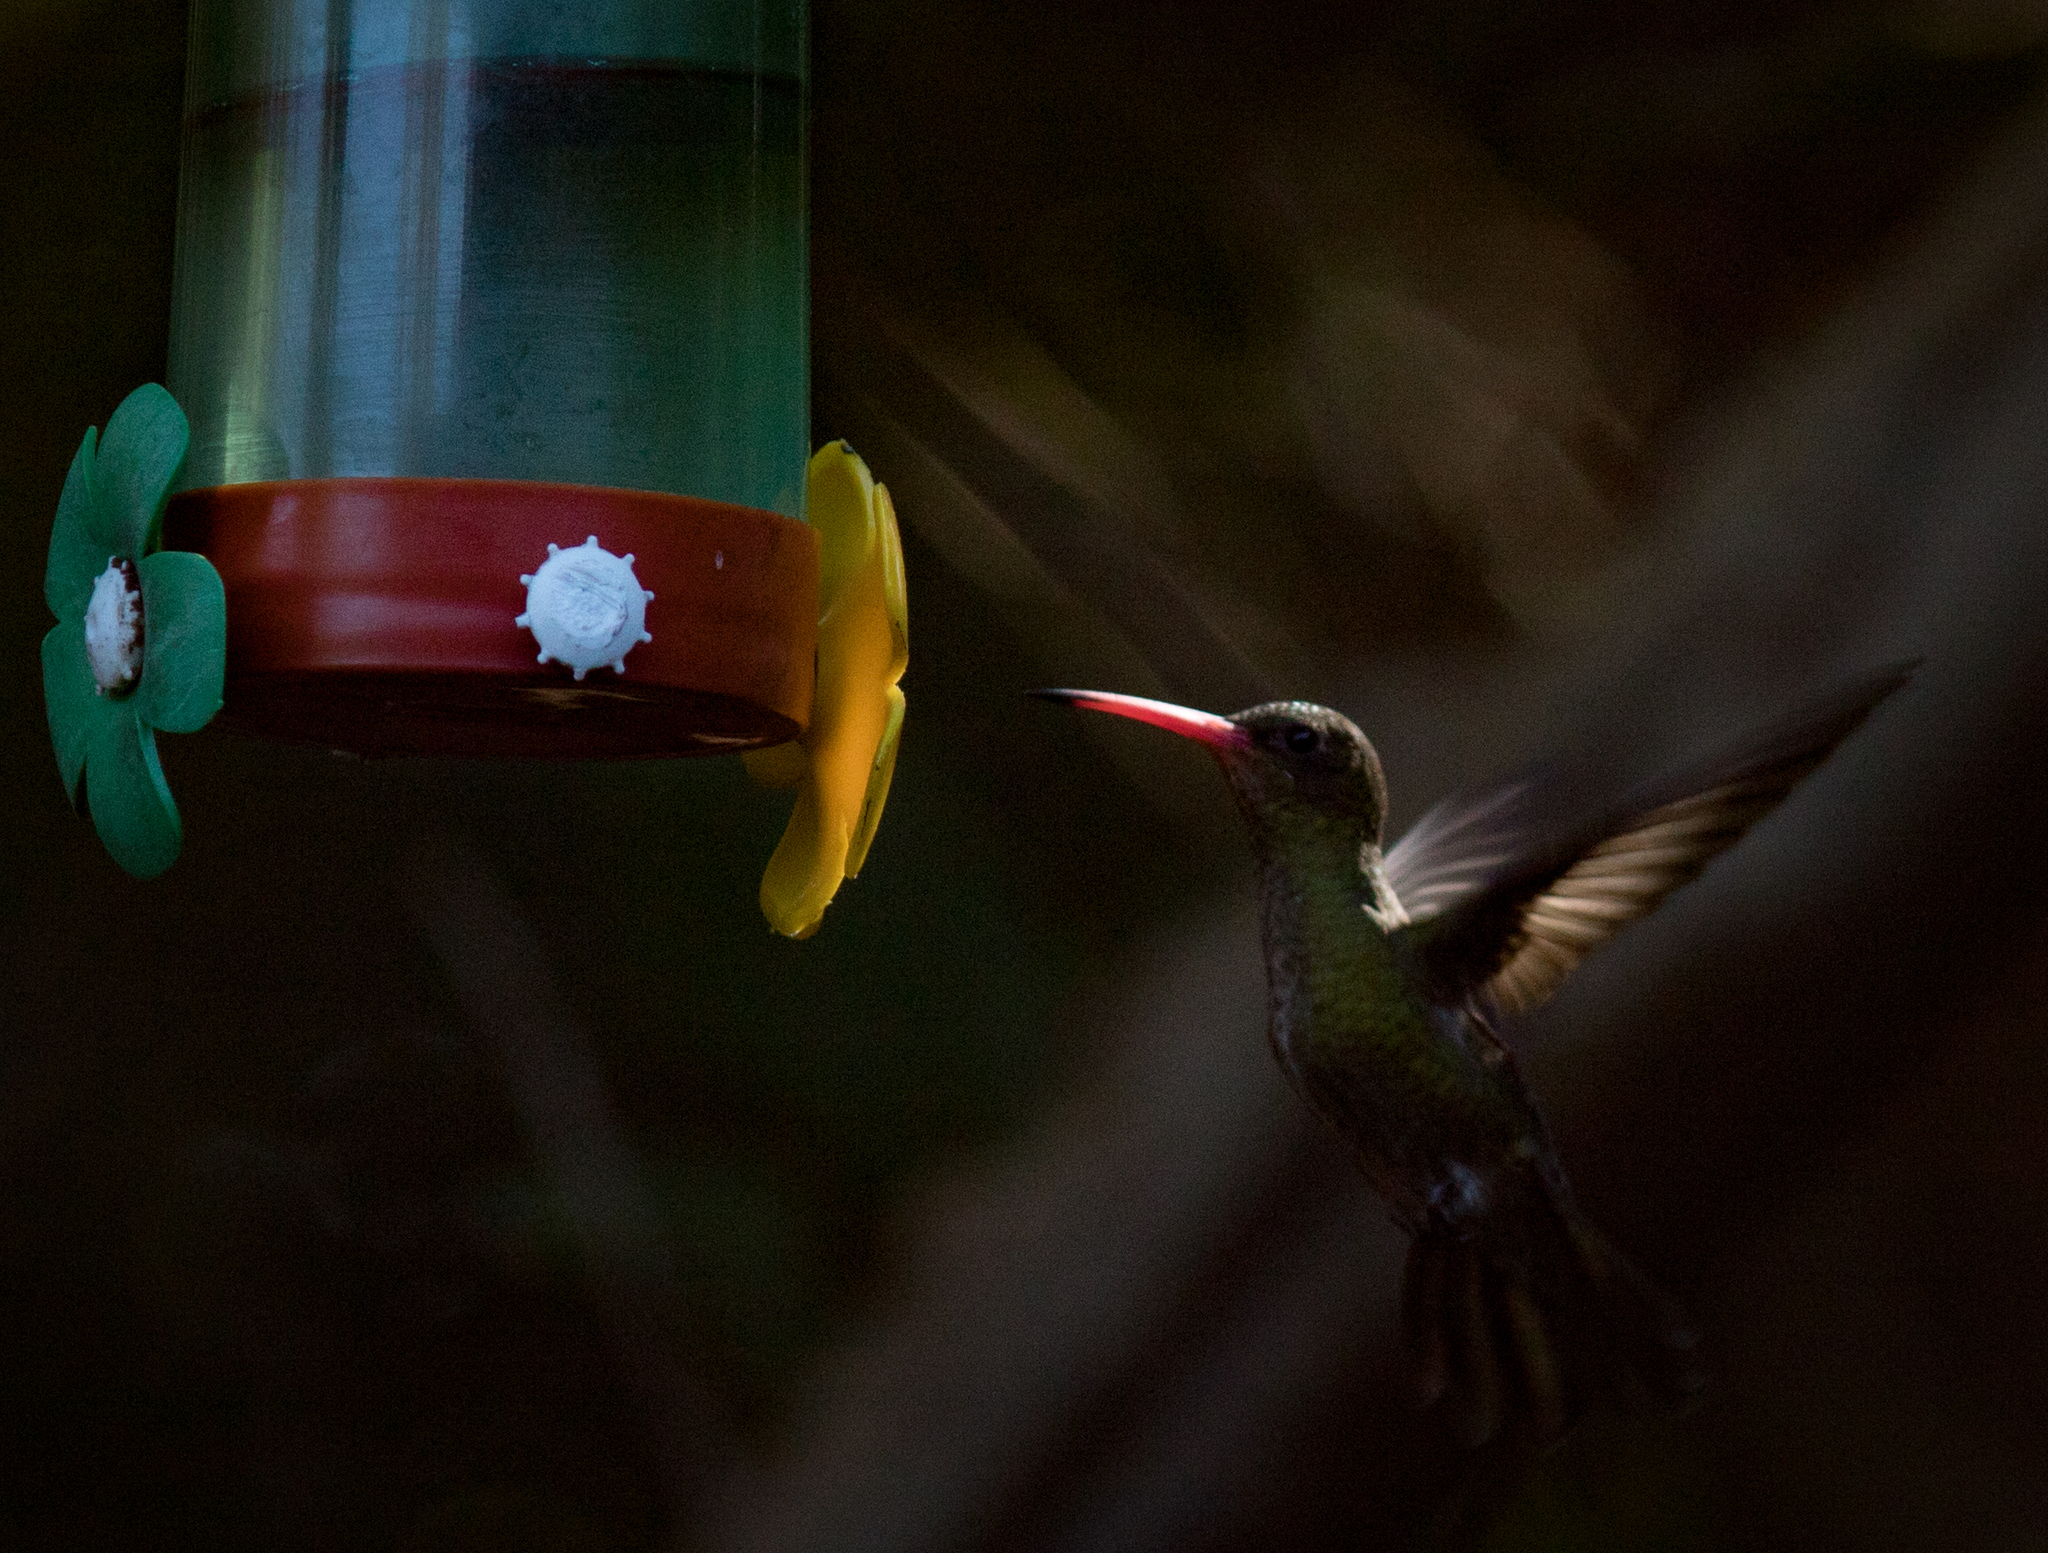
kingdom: Animalia
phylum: Chordata
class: Aves
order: Apodiformes
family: Trochilidae
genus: Hylocharis
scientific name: Hylocharis chrysura
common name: Gilded sapphire
